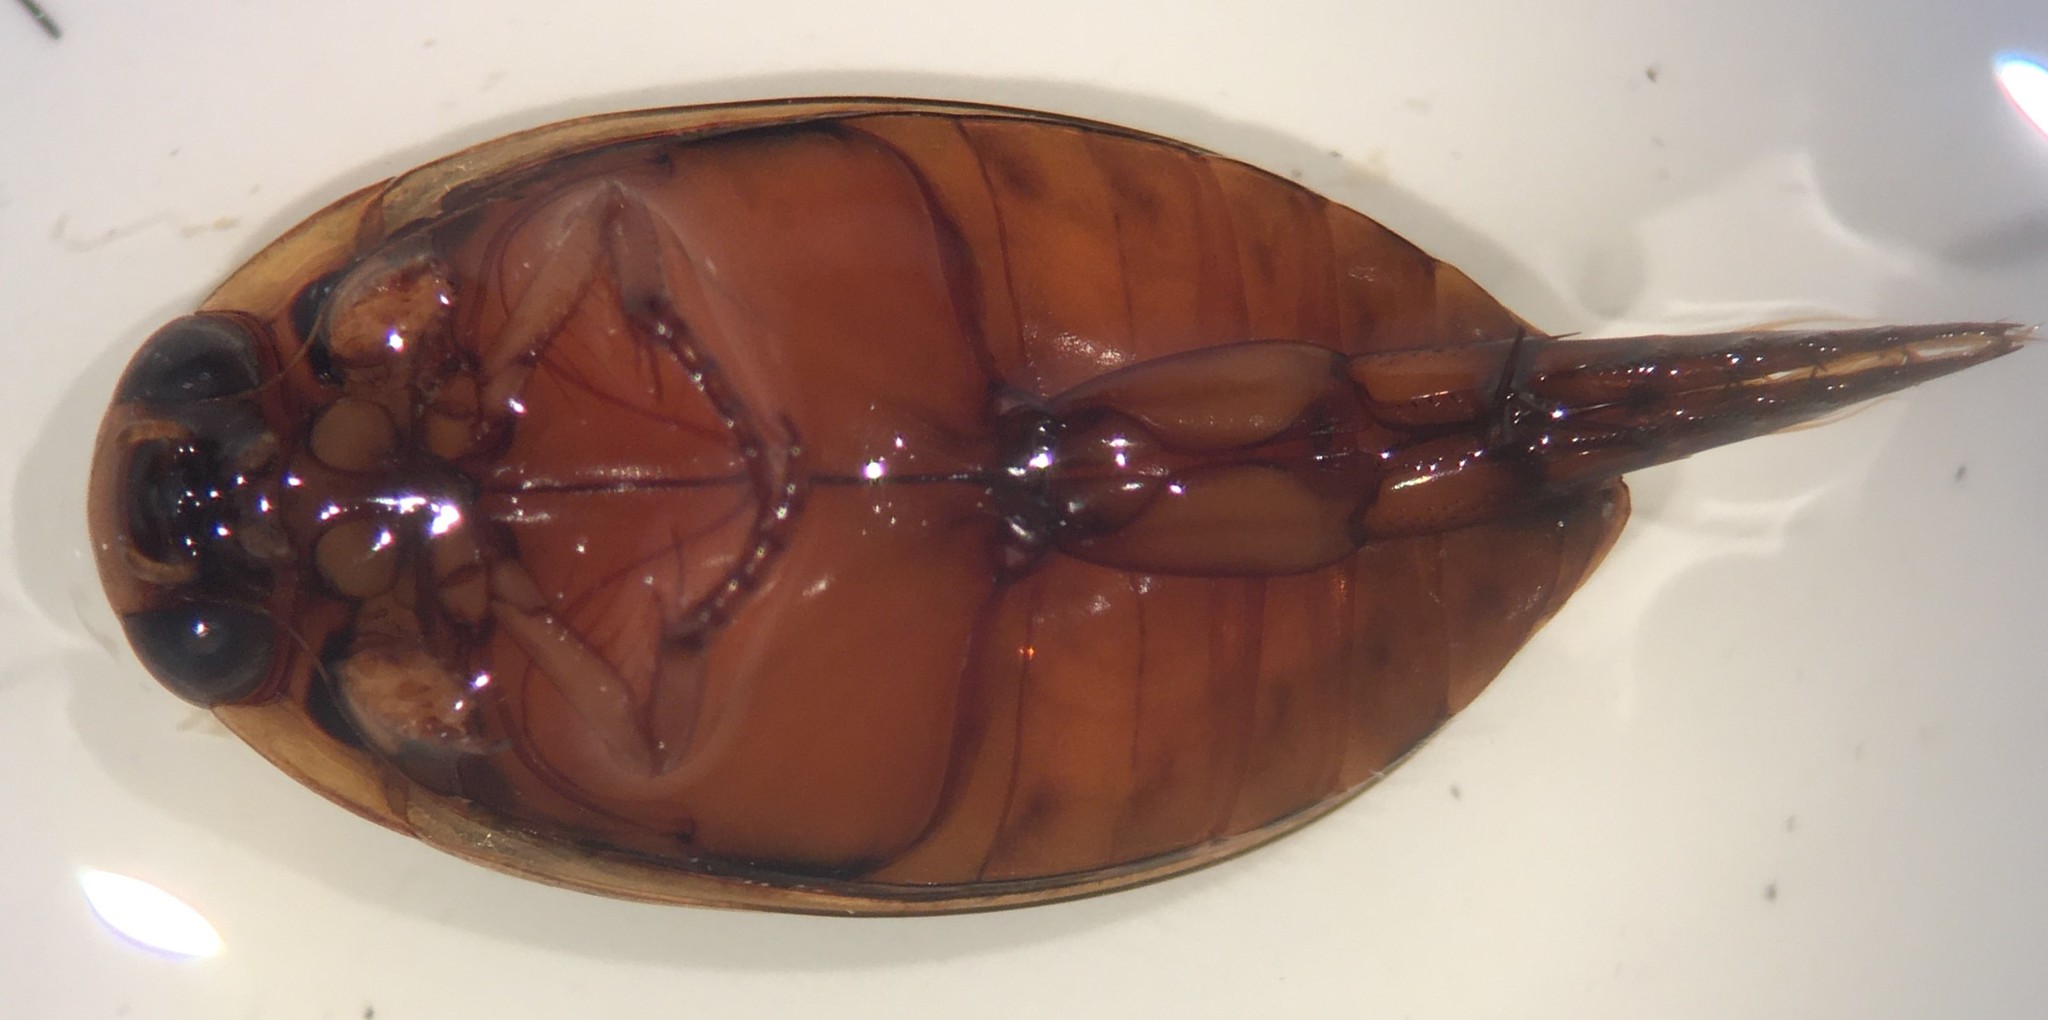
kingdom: Animalia
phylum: Arthropoda
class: Insecta
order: Coleoptera
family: Dytiscidae
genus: Thermonectus
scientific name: Thermonectus nigrofasciatus
